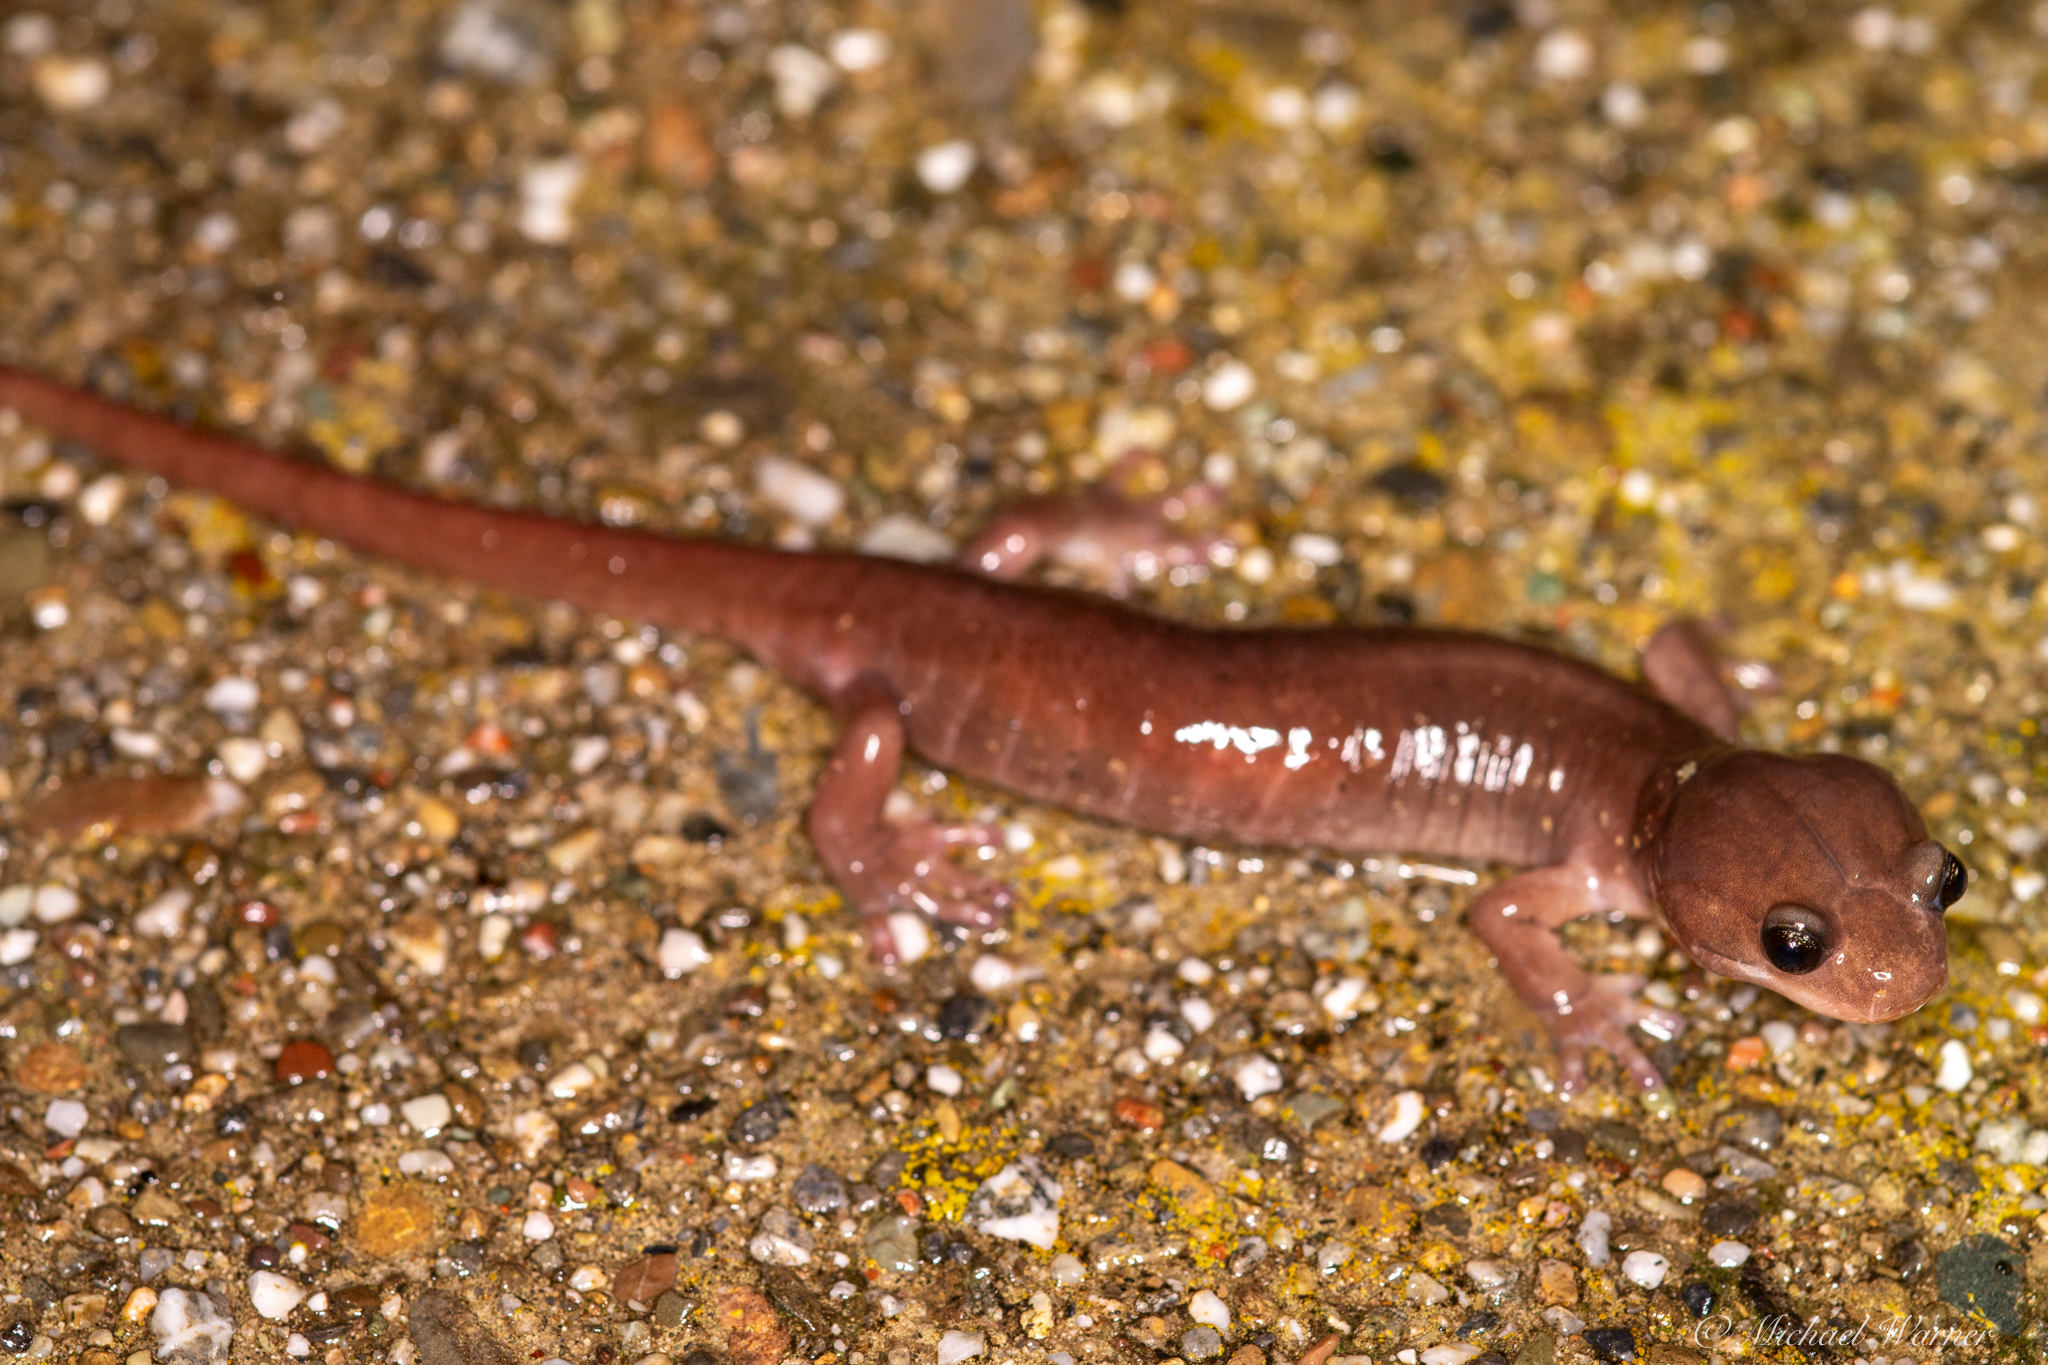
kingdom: Animalia
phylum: Chordata
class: Amphibia
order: Caudata
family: Plethodontidae
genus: Aneides
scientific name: Aneides lugubris
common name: Arboreal salamander
